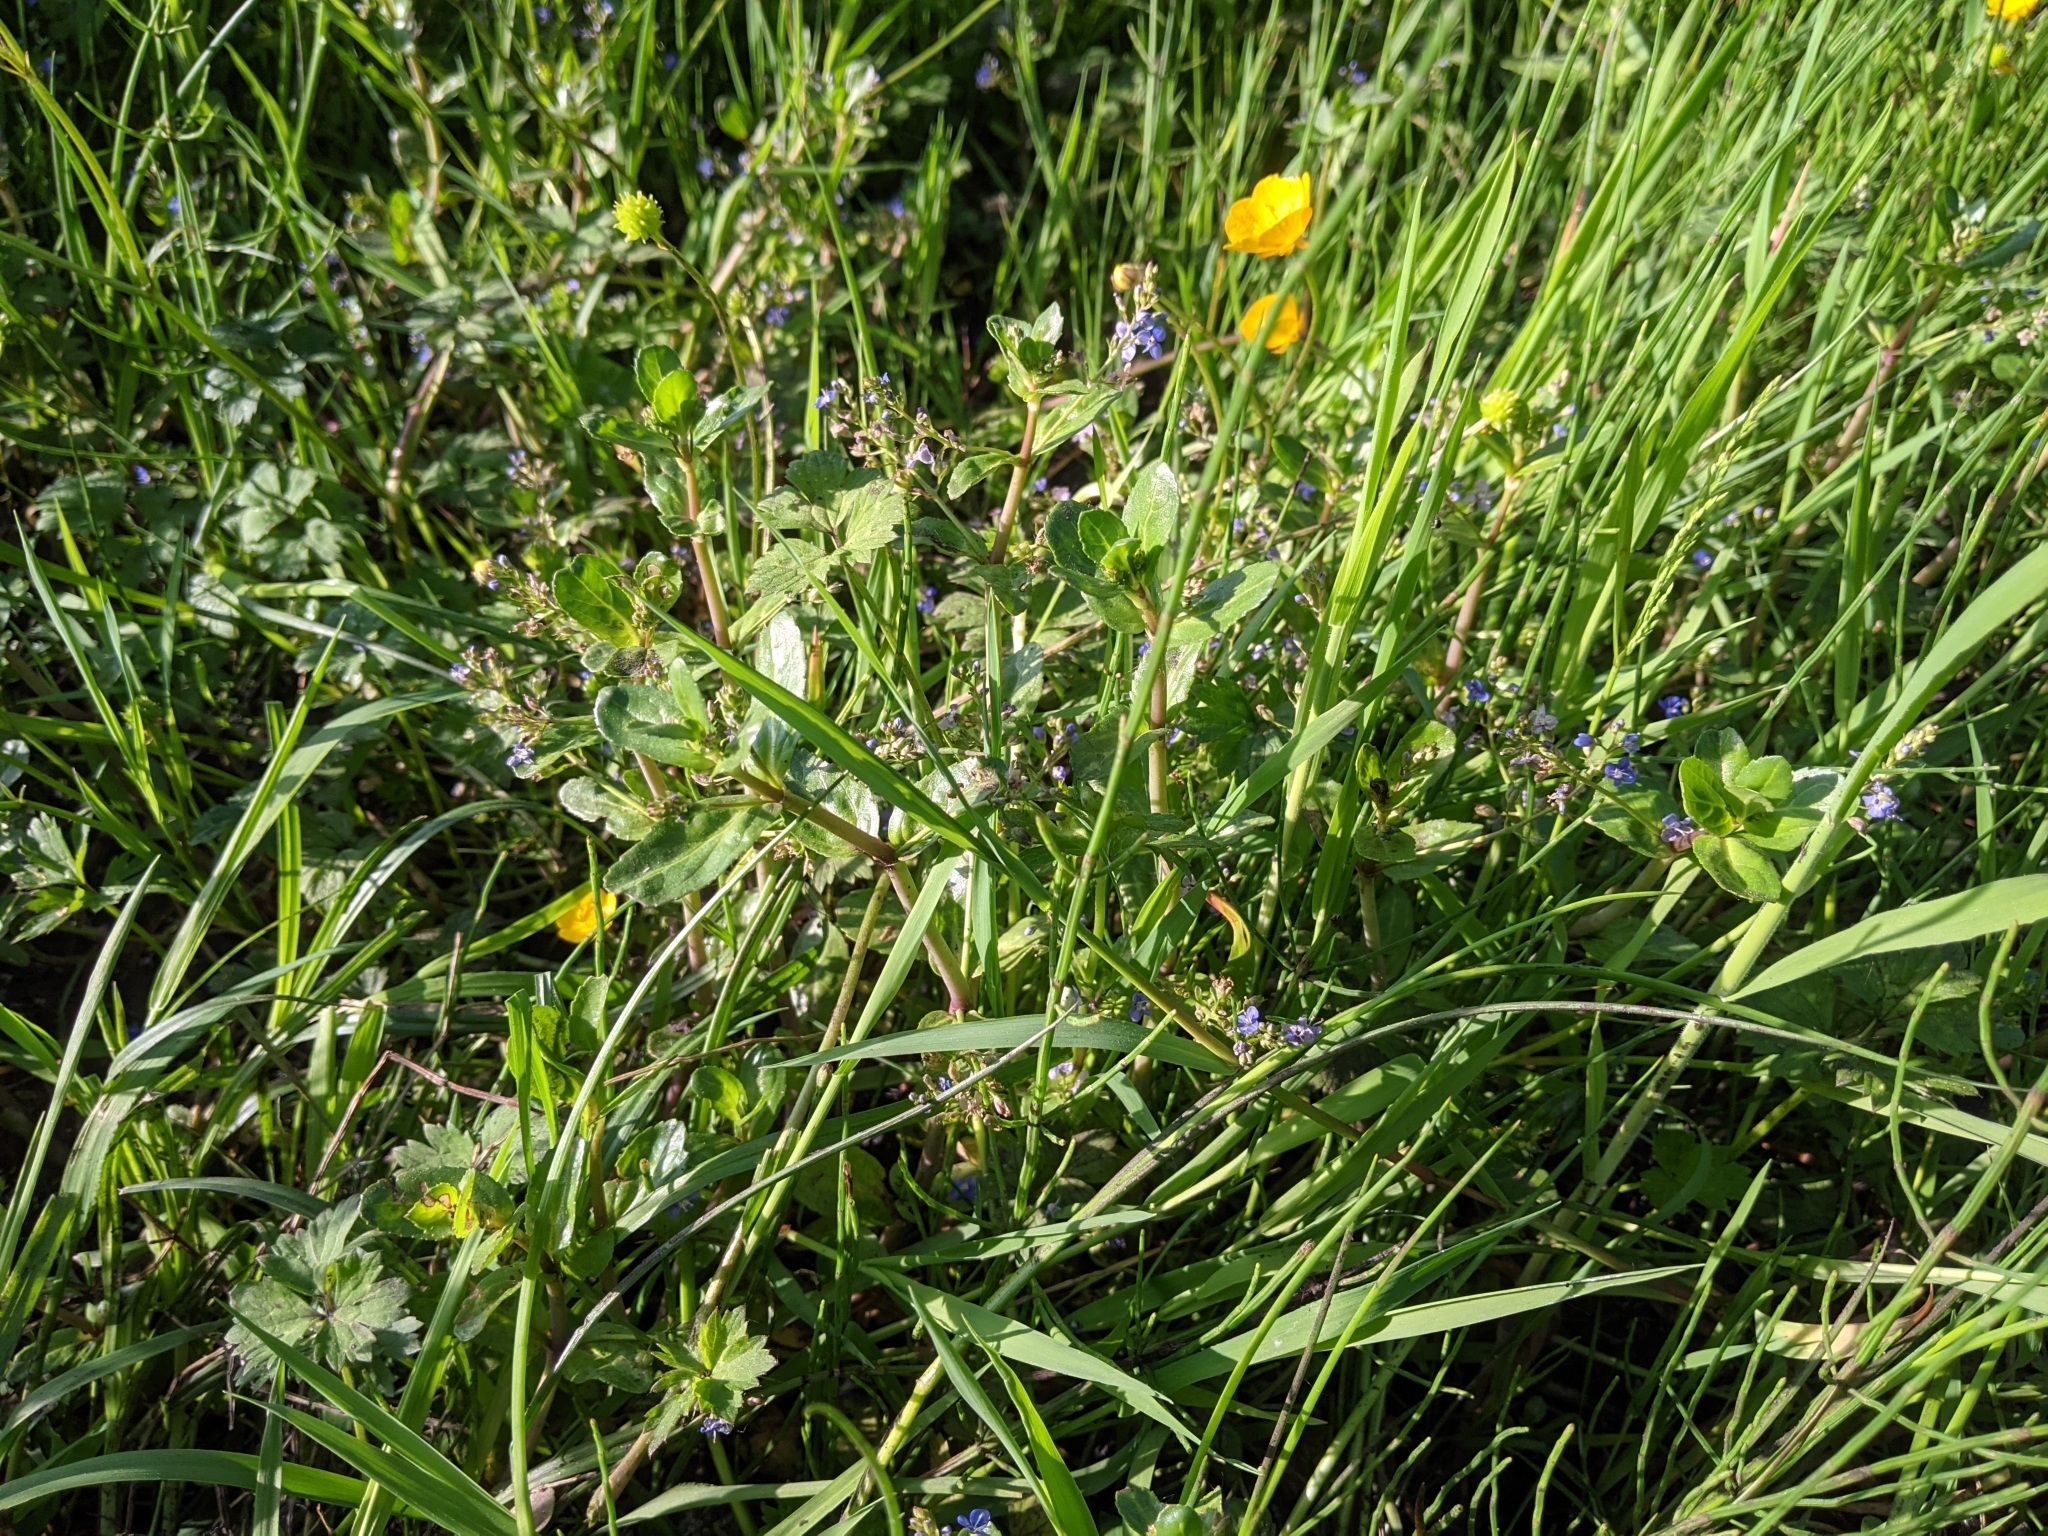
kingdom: Plantae
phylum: Tracheophyta
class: Magnoliopsida
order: Lamiales
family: Plantaginaceae
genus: Veronica
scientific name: Veronica beccabunga
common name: Brooklime
